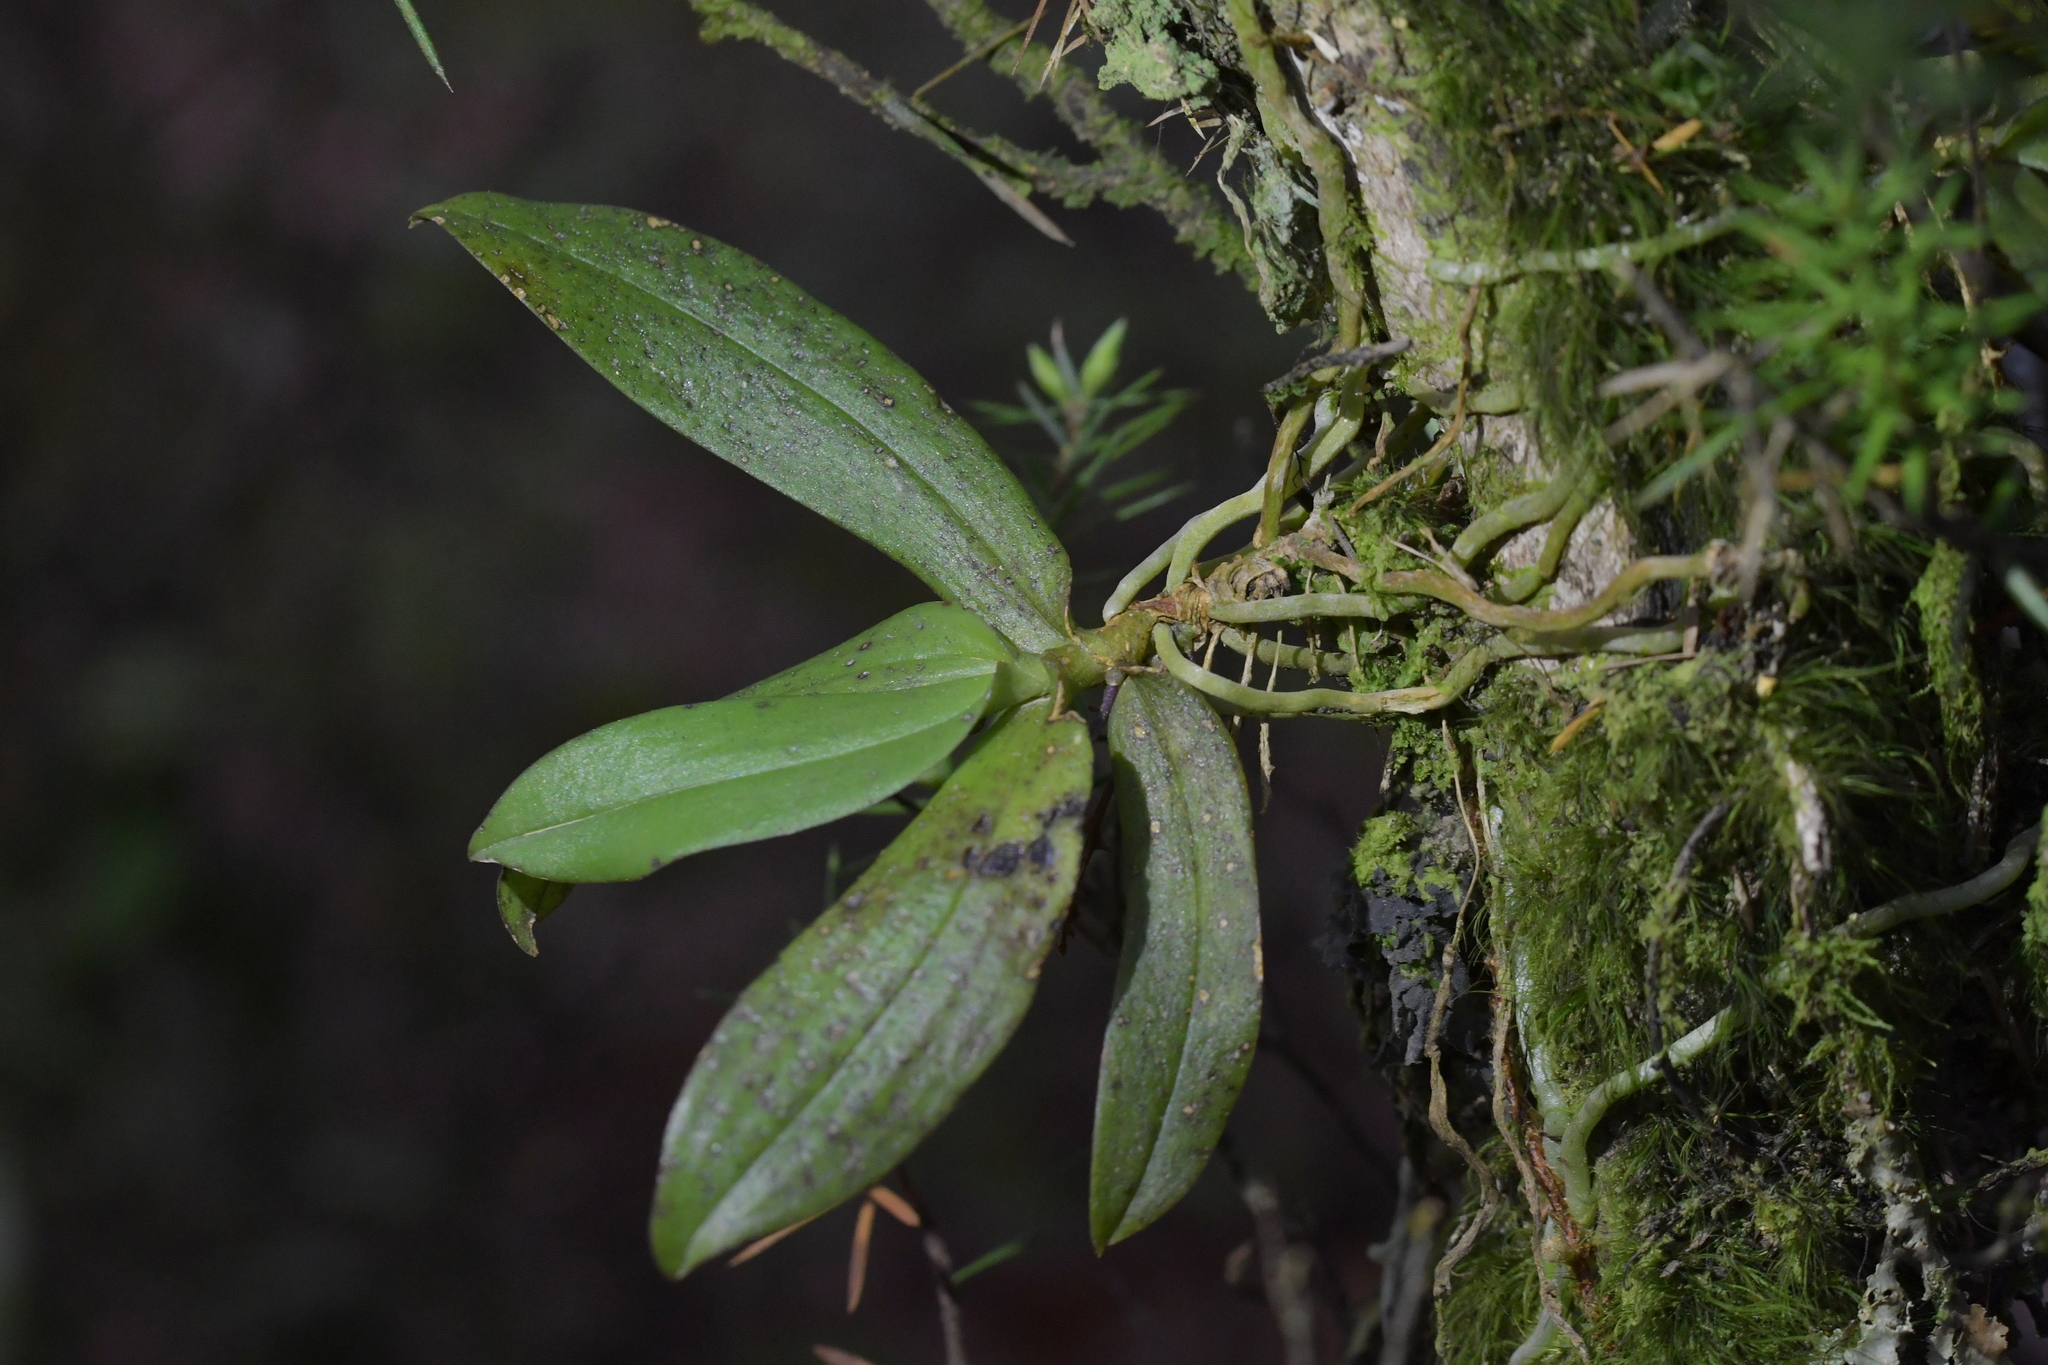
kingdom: Plantae
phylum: Tracheophyta
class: Liliopsida
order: Asparagales
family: Orchidaceae
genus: Drymoanthus
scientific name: Drymoanthus adversus
